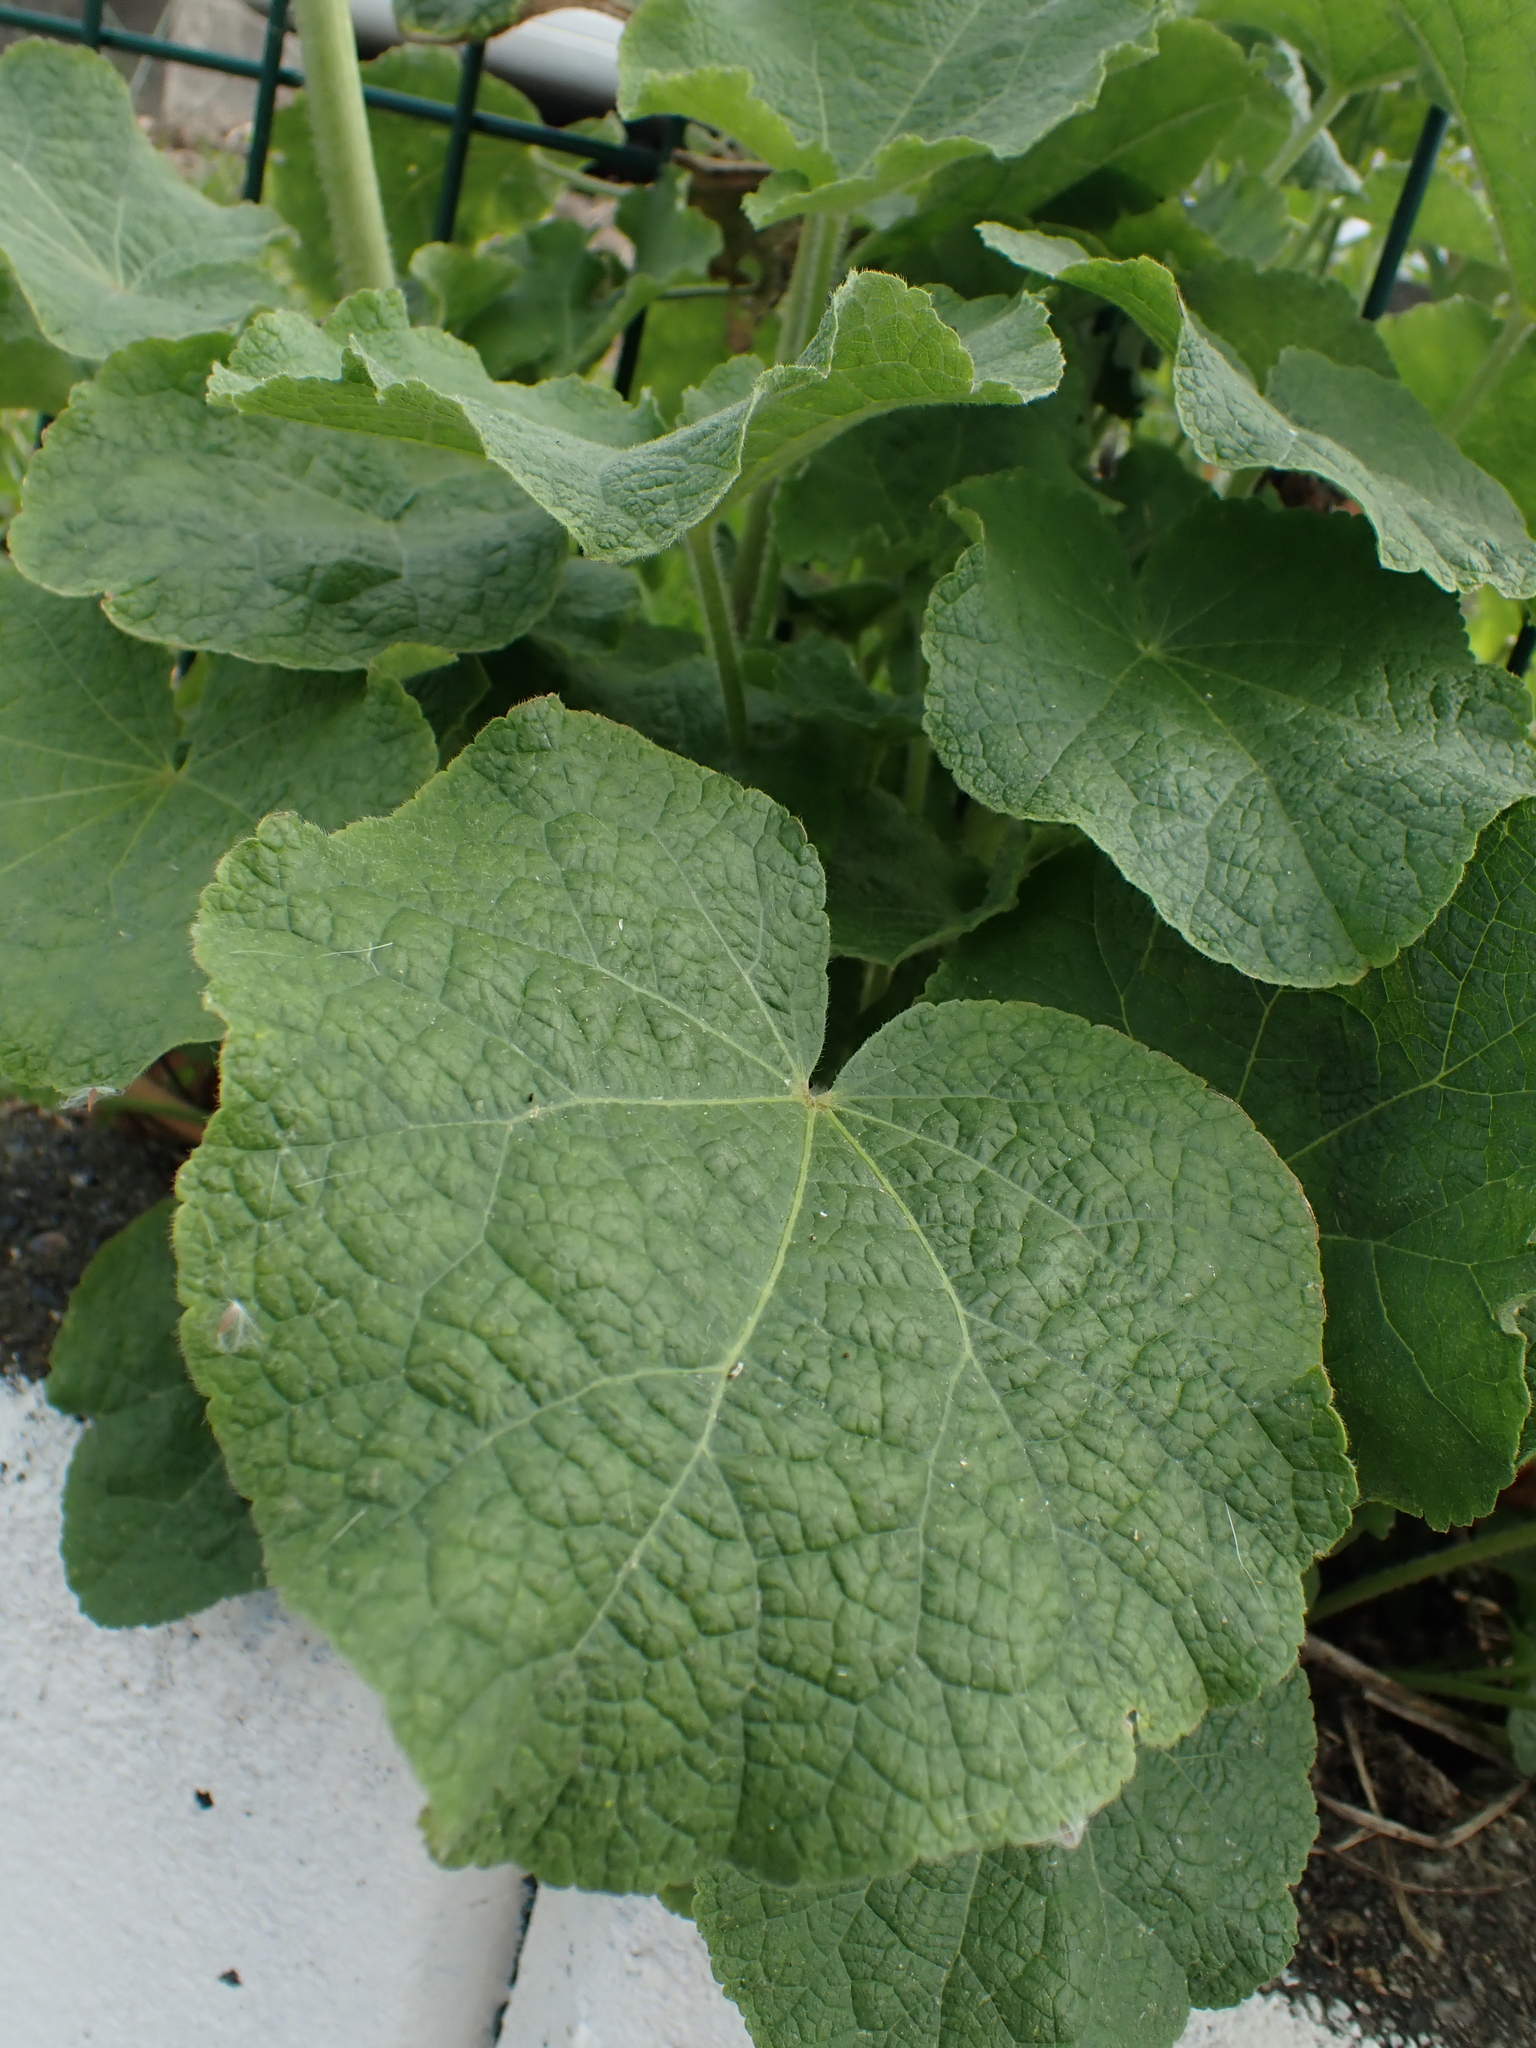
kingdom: Plantae
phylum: Tracheophyta
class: Magnoliopsida
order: Malvales
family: Malvaceae
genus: Alcea
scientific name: Alcea rosea
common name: Hollyhock
